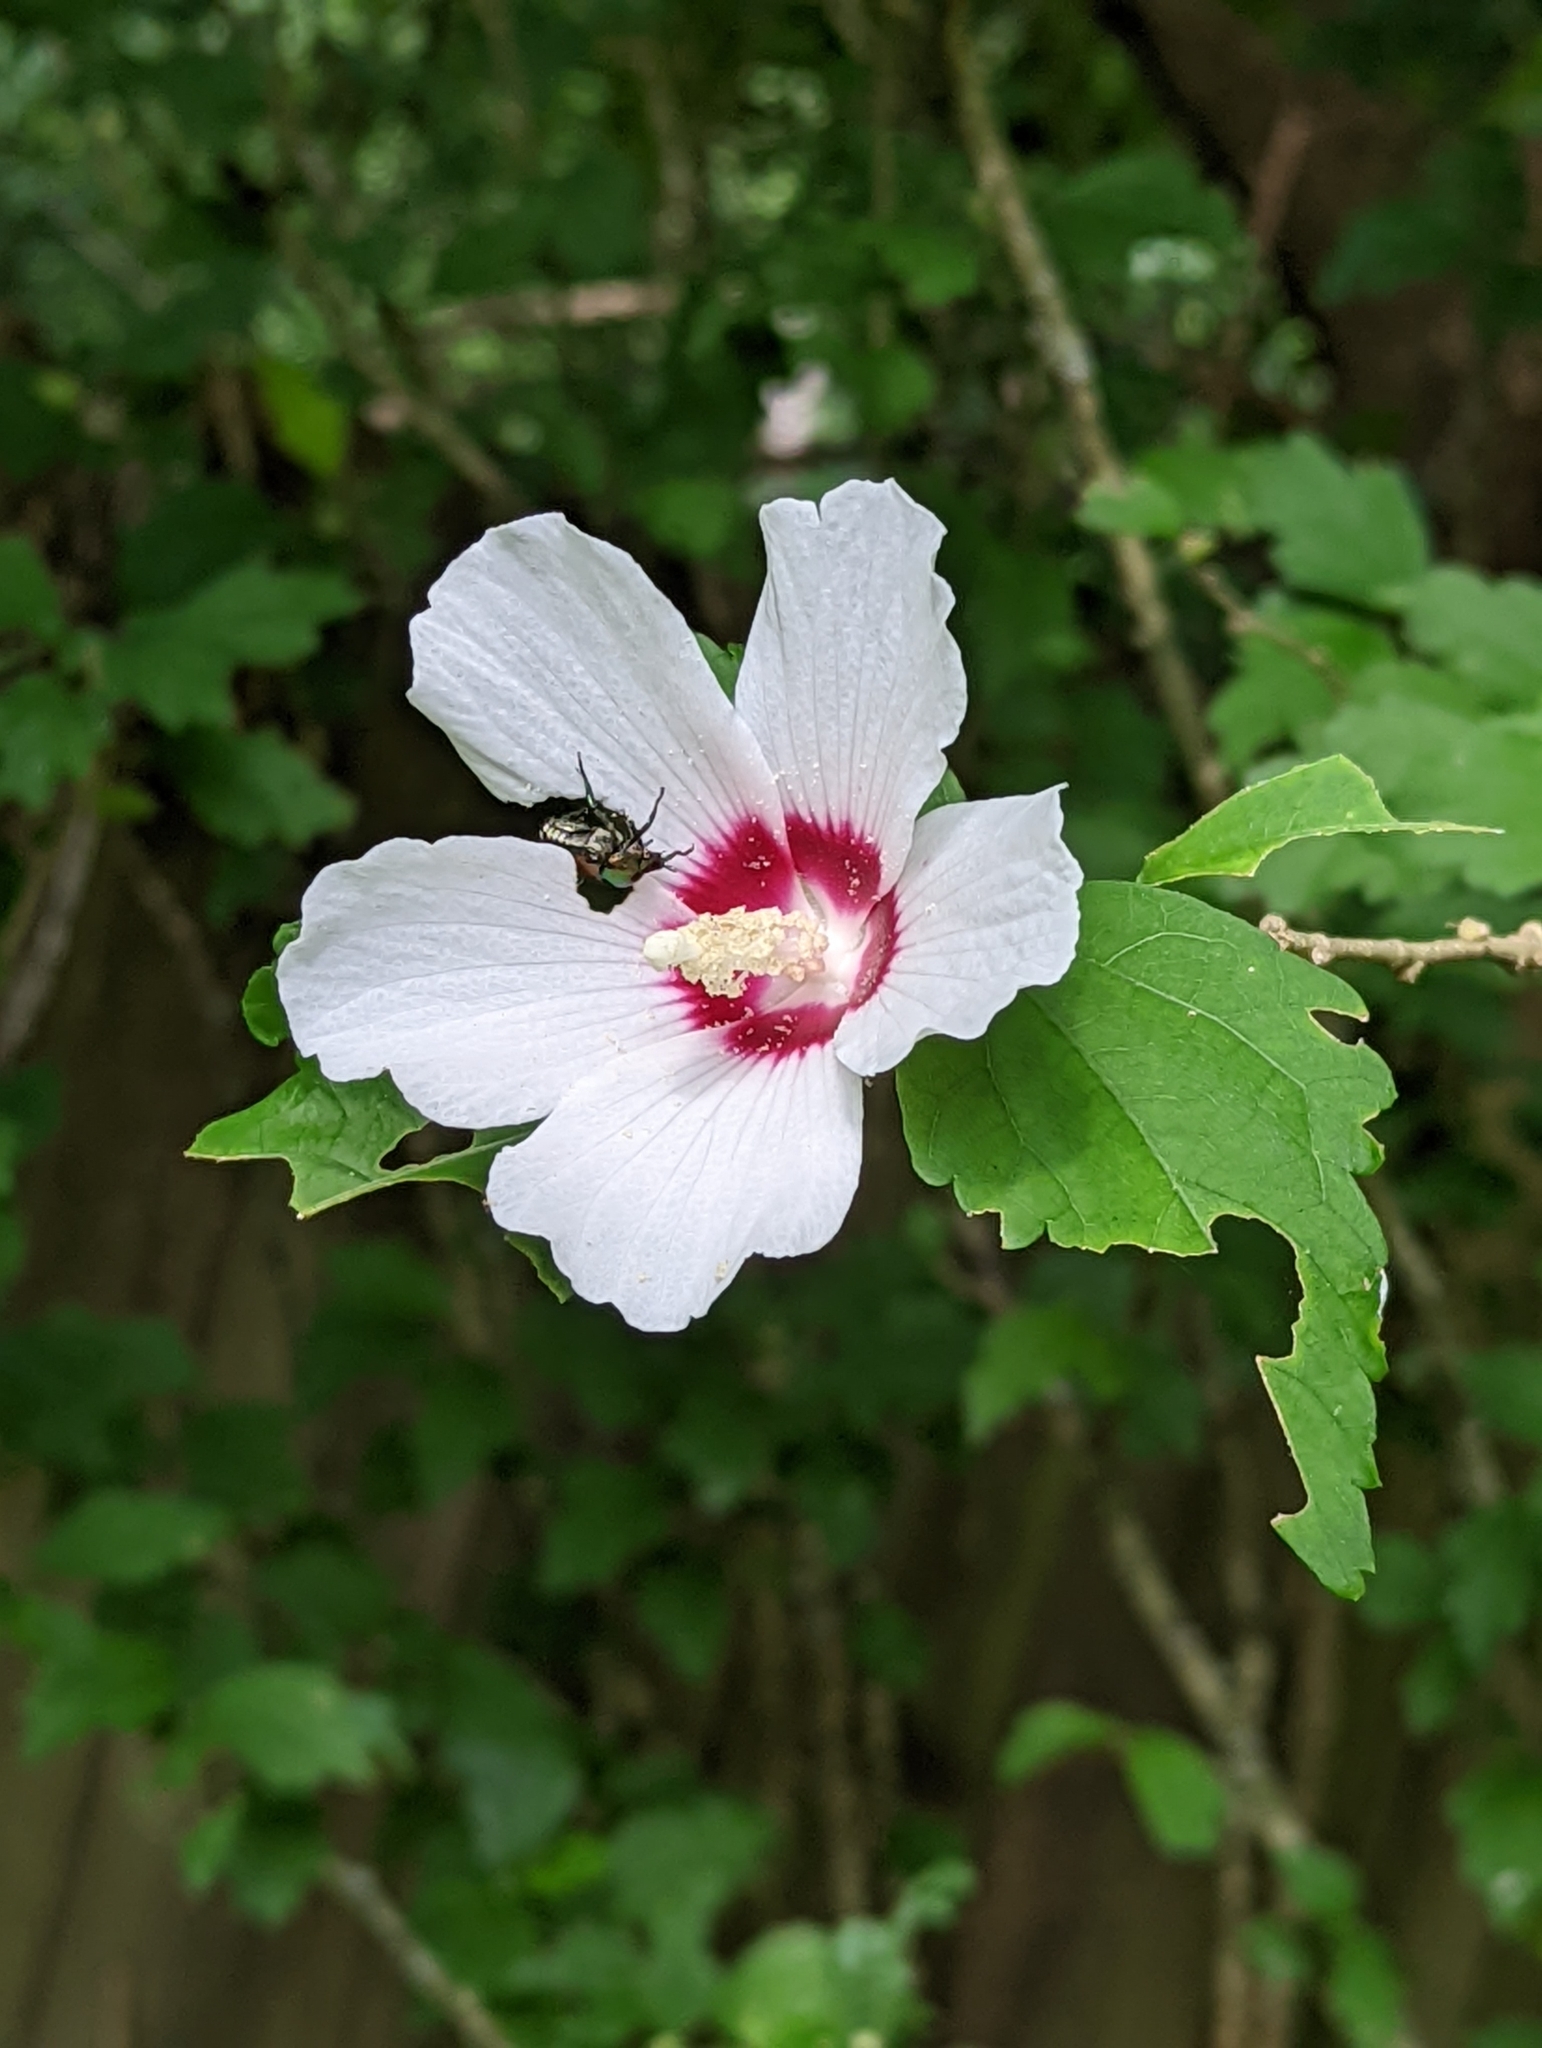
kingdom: Plantae
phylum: Tracheophyta
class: Magnoliopsida
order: Malvales
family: Malvaceae
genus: Hibiscus
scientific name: Hibiscus syriacus
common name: Syrian ketmia
